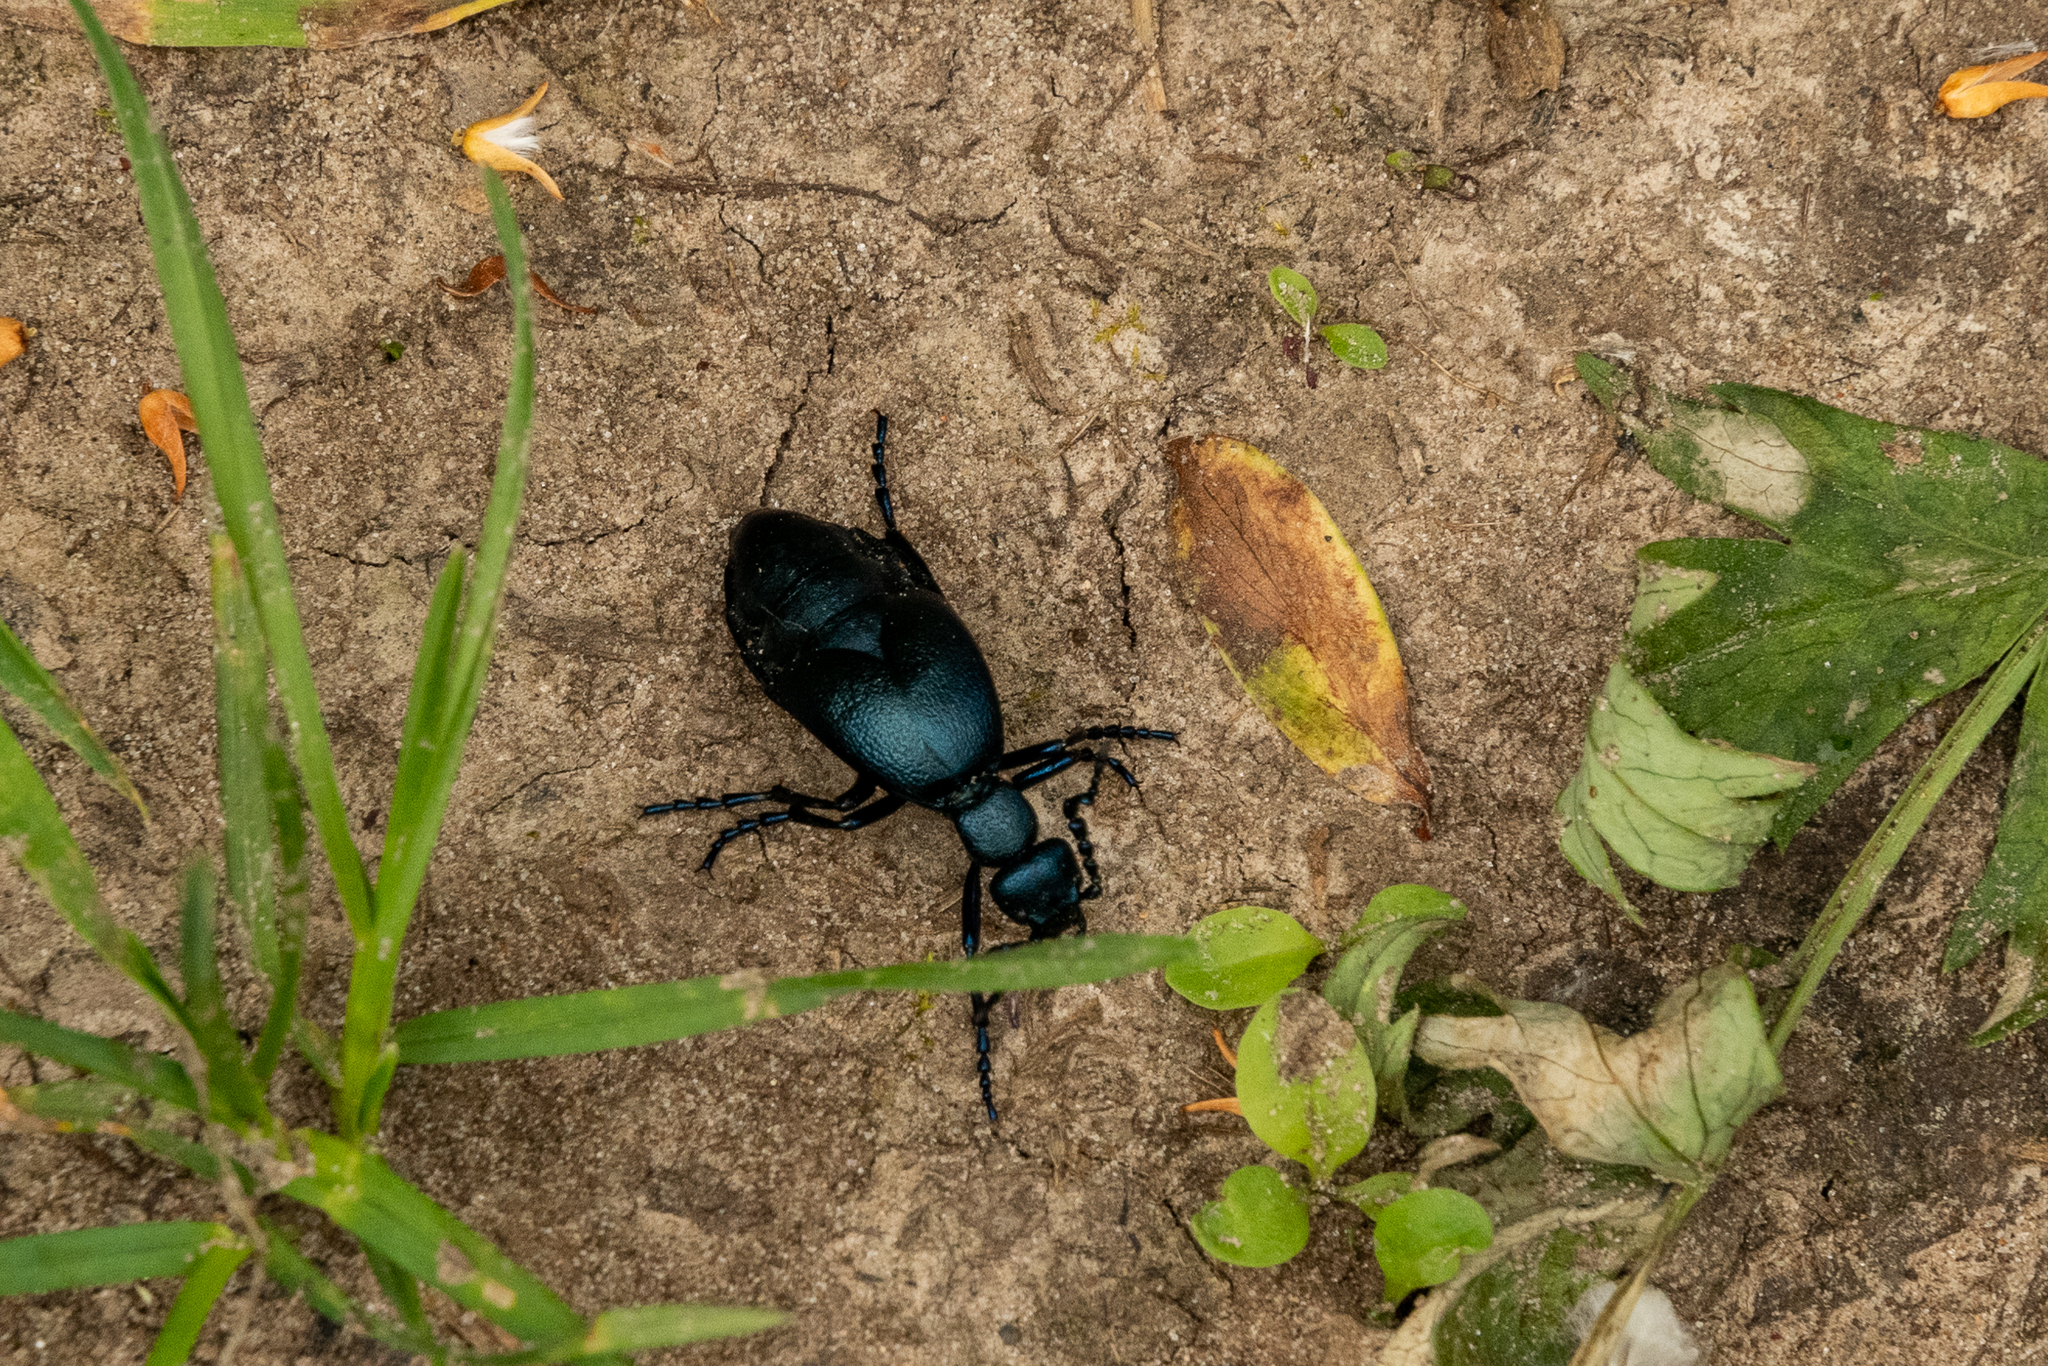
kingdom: Animalia
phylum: Arthropoda
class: Insecta
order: Coleoptera
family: Meloidae
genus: Meloe
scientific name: Meloe violaceus
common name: Violet oil-beetle
